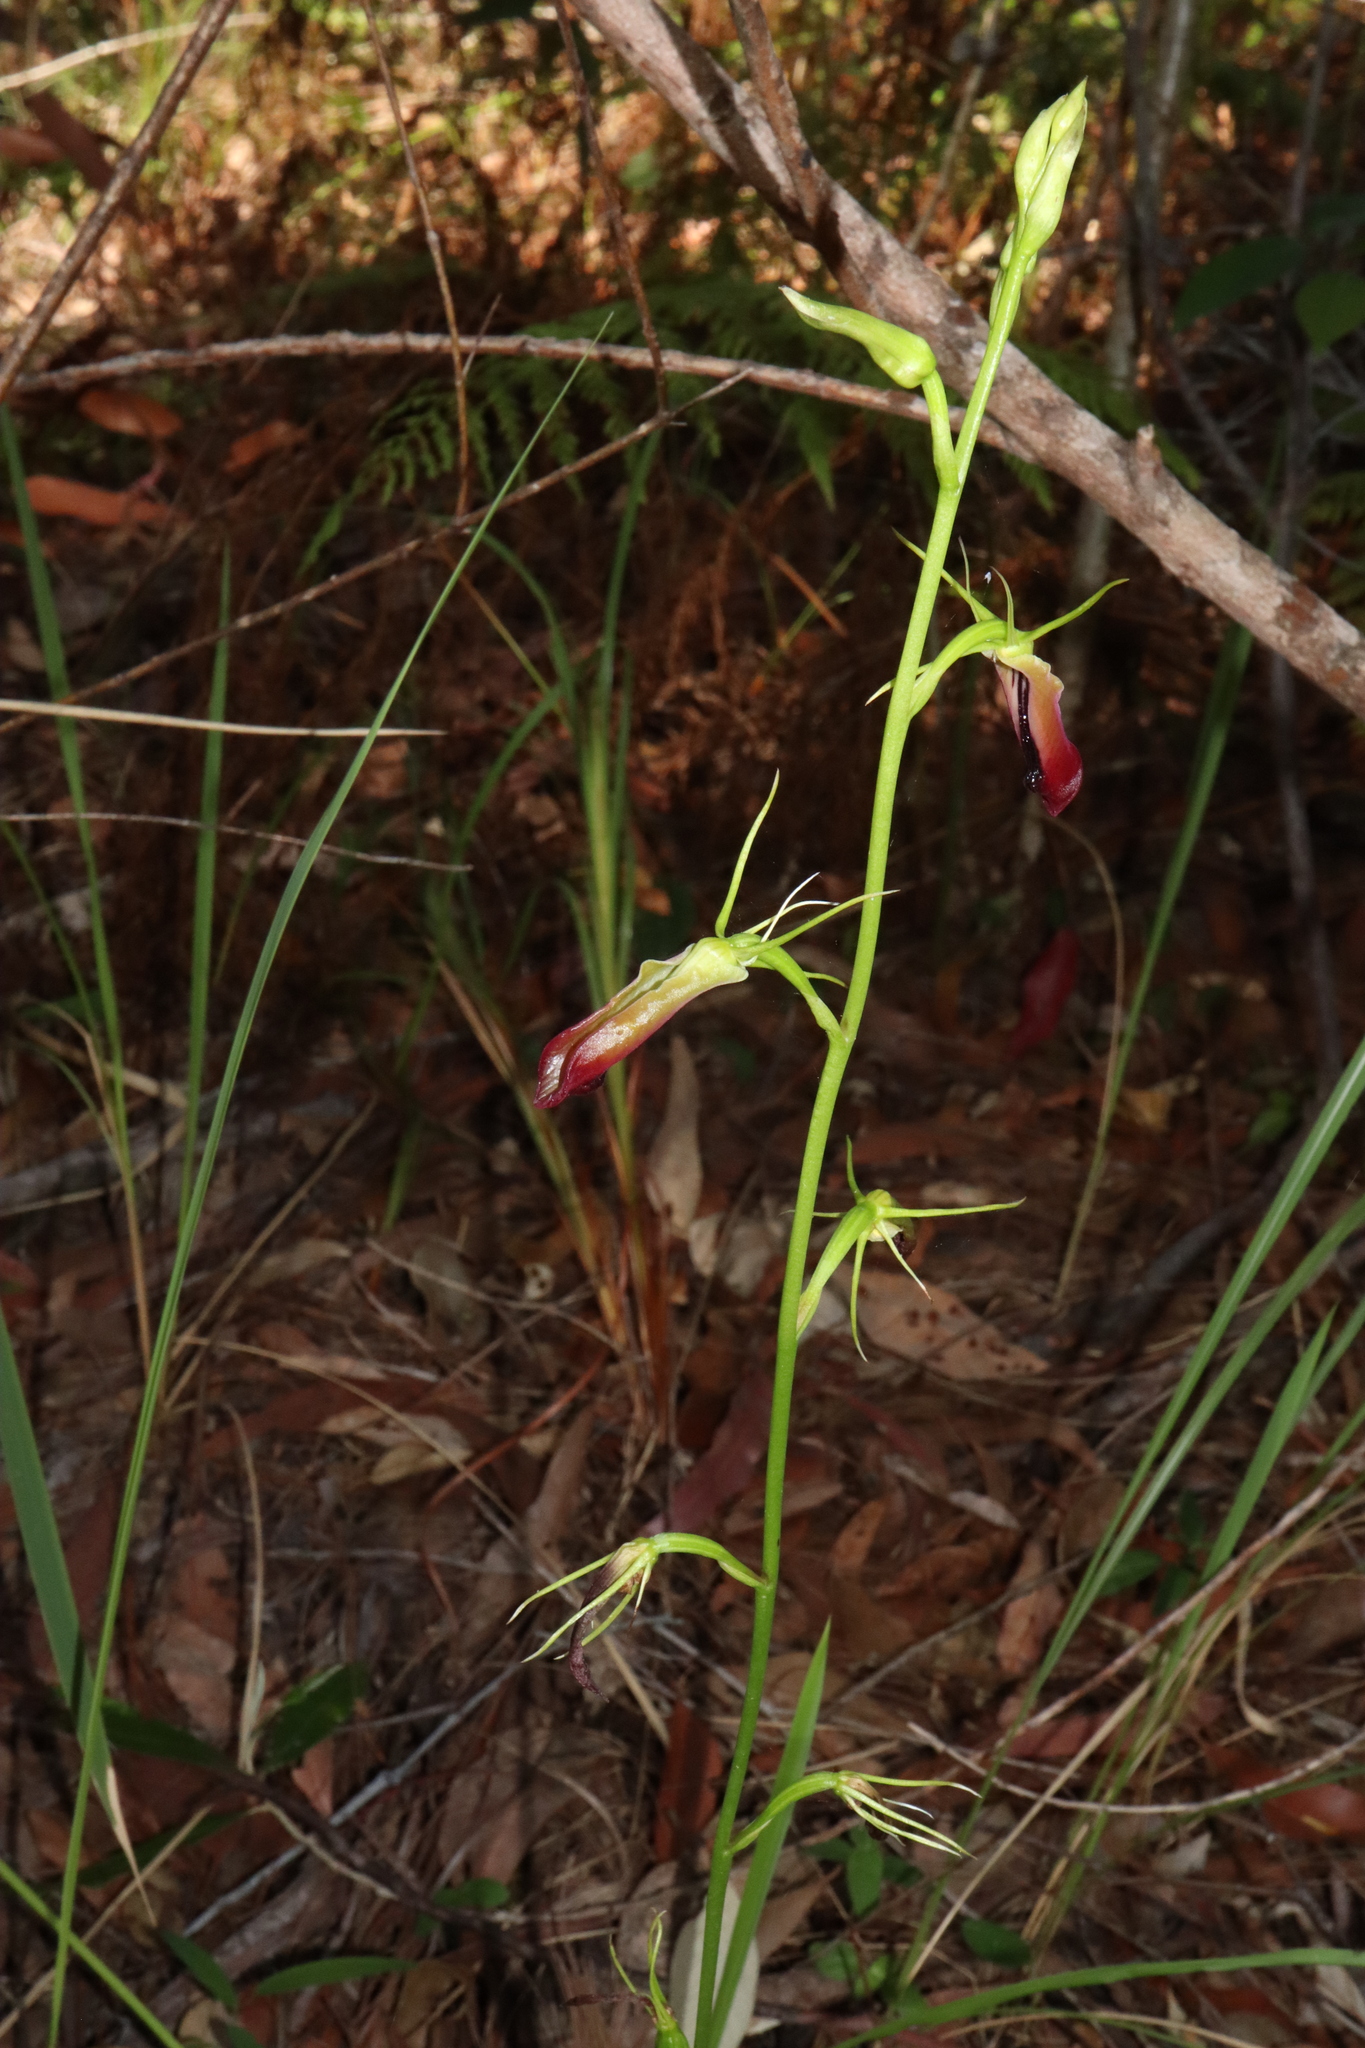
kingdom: Plantae
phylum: Tracheophyta
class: Liliopsida
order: Asparagales
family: Orchidaceae
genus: Cryptostylis
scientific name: Cryptostylis subulata
